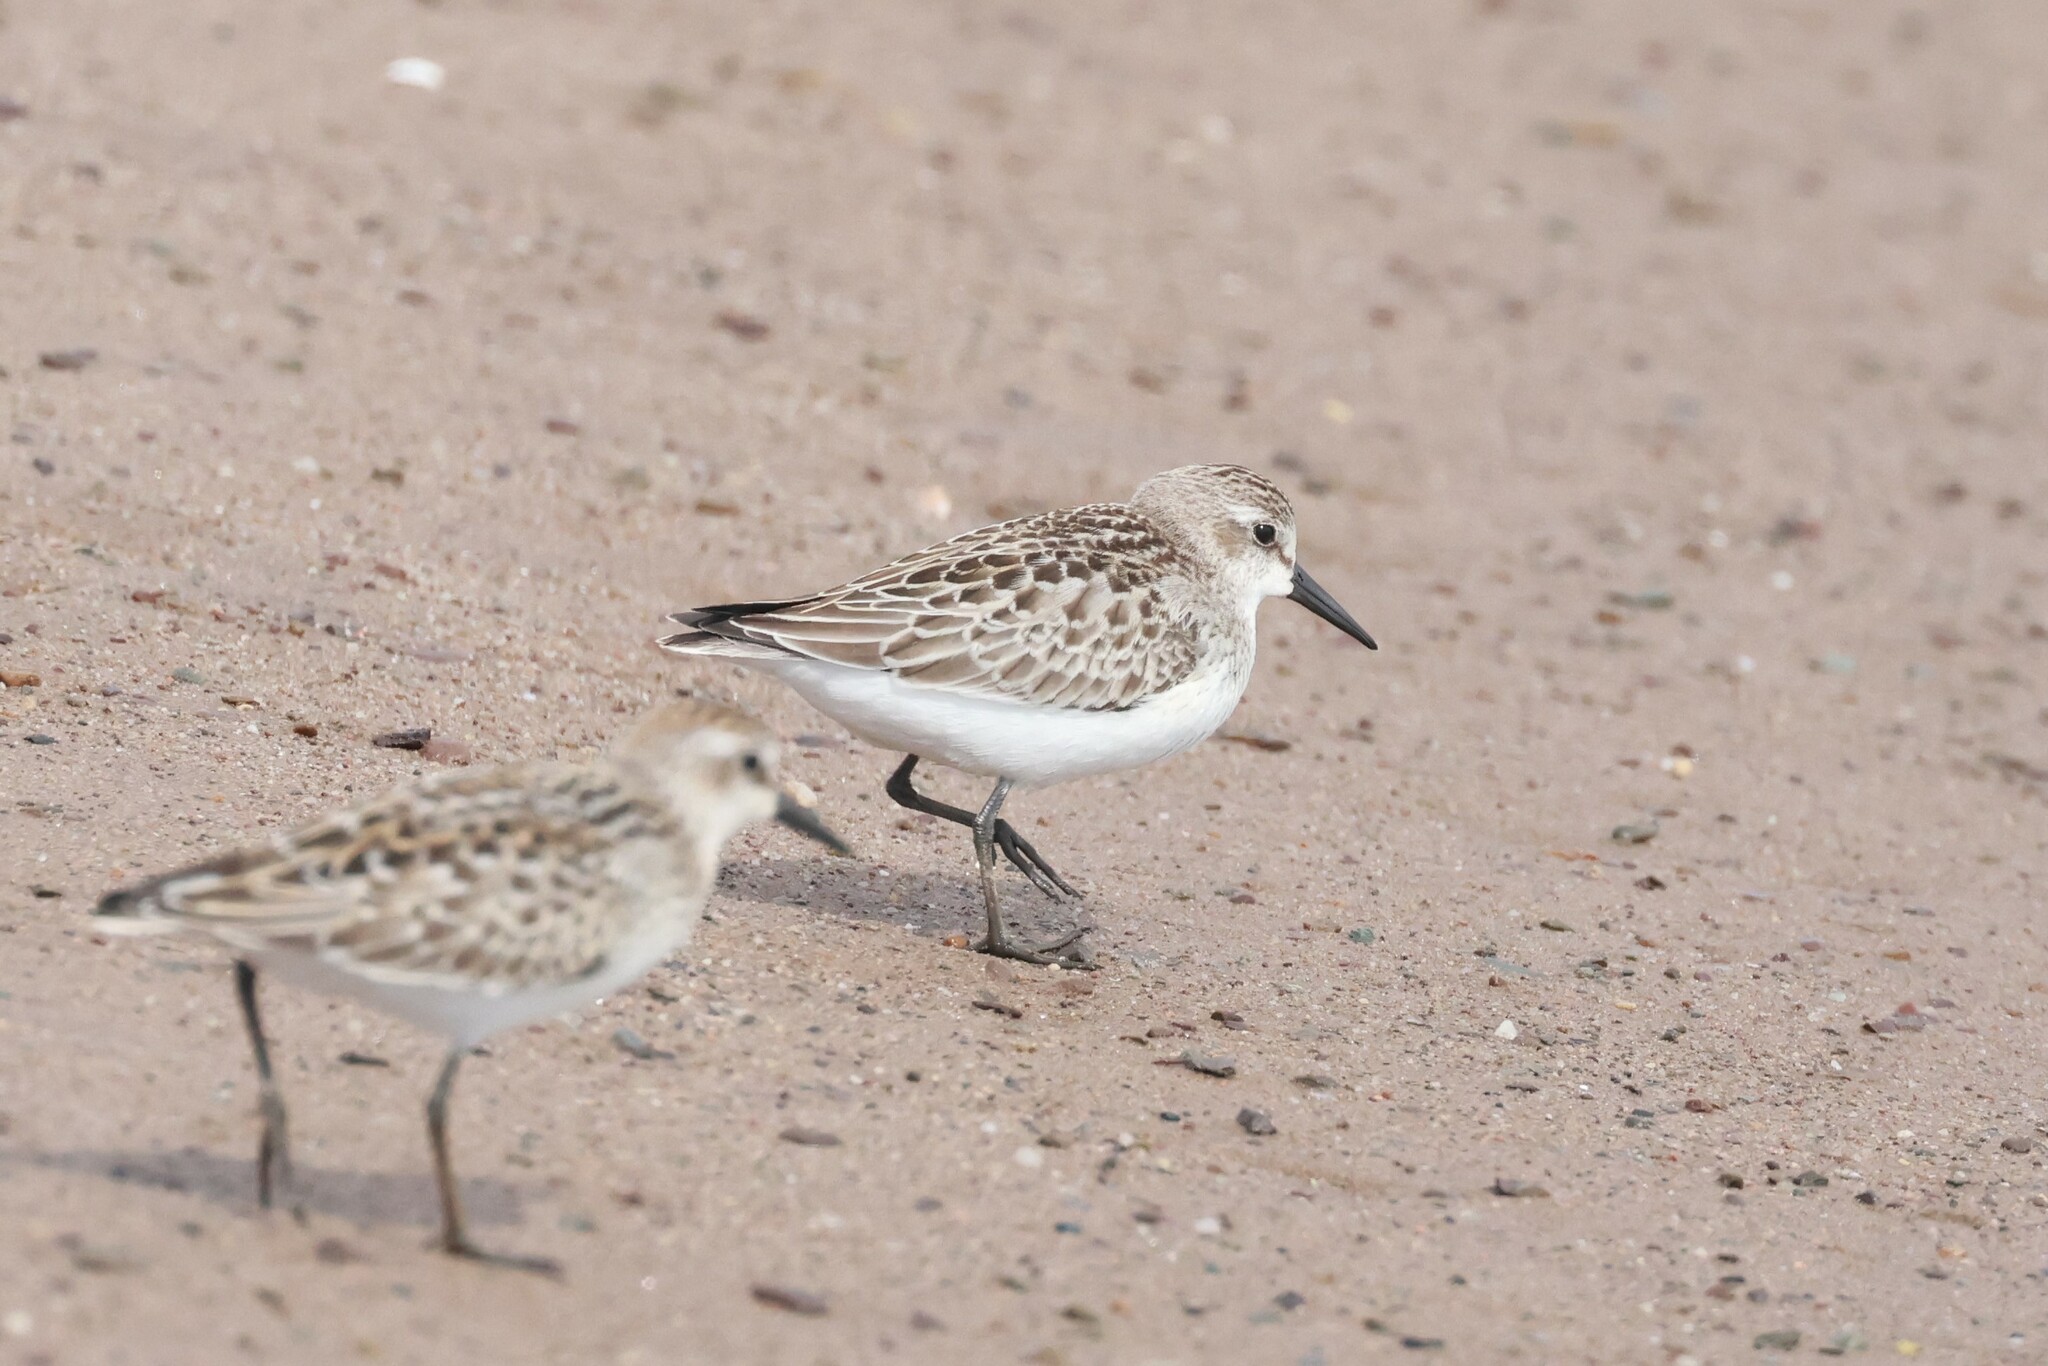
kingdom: Animalia
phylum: Chordata
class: Aves
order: Charadriiformes
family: Scolopacidae
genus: Calidris
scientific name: Calidris pusilla
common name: Semipalmated sandpiper
